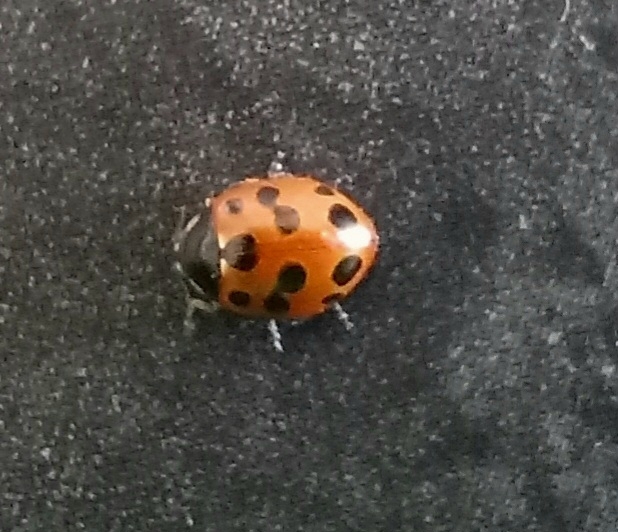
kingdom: Animalia
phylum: Arthropoda
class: Insecta
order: Coleoptera
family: Coccinellidae
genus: Coccinella
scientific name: Coccinella undecimpunctata
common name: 11-spot ladybird
